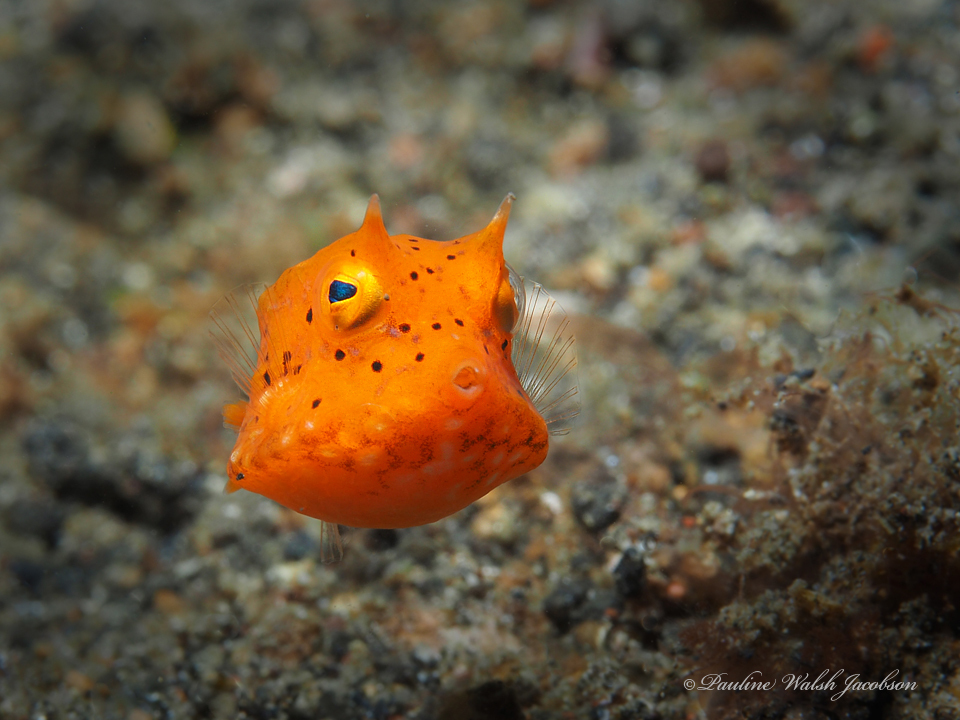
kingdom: Animalia
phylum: Chordata
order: Tetraodontiformes
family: Ostraciidae
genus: Lactoria
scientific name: Lactoria fornasini
